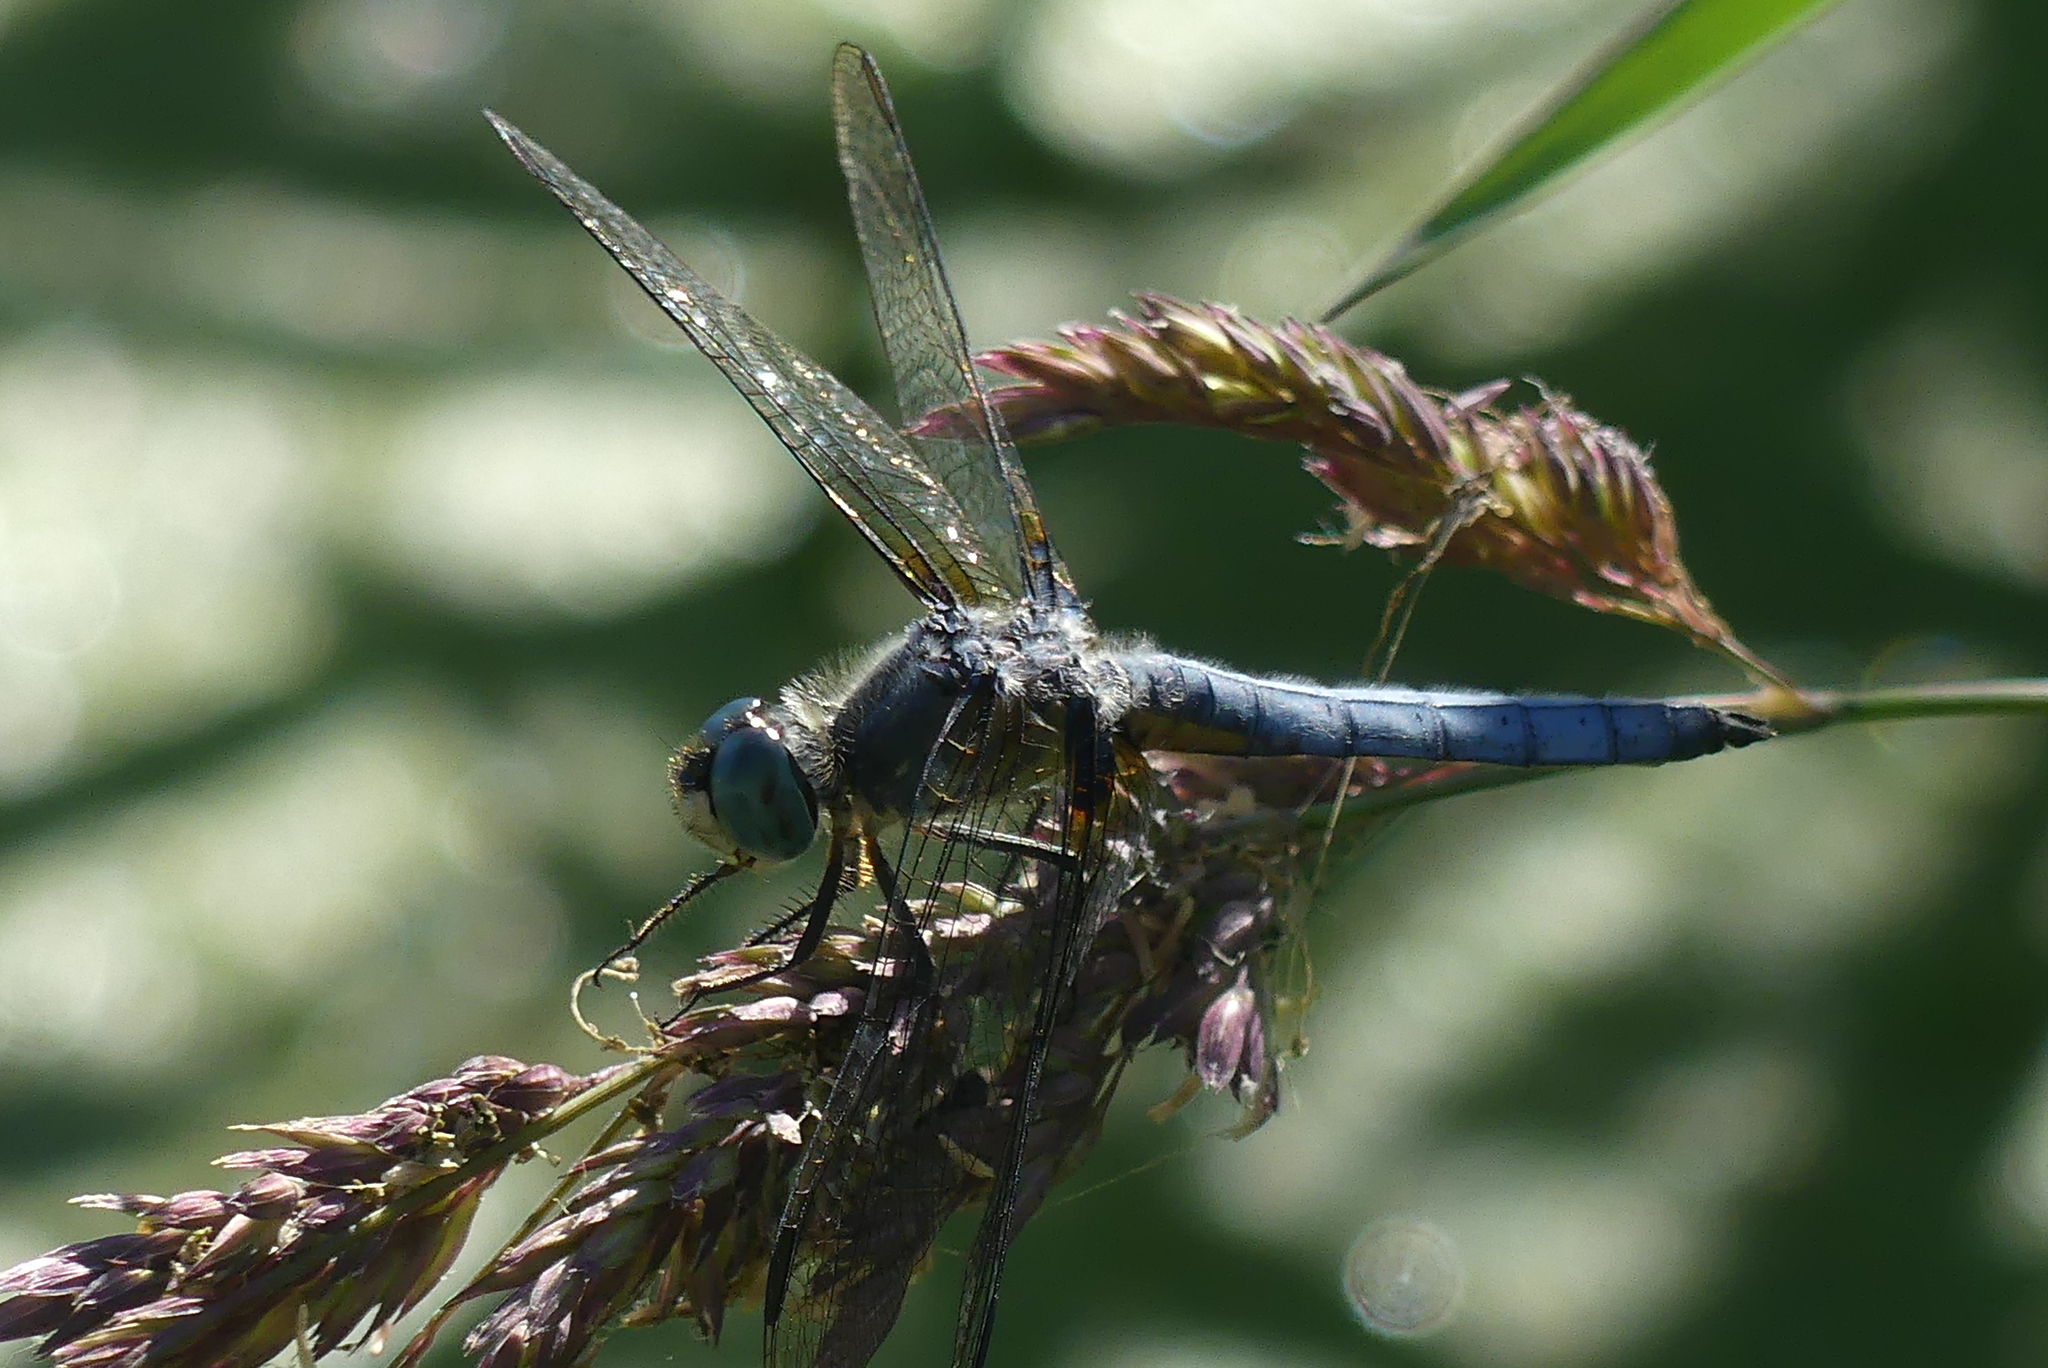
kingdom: Animalia
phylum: Arthropoda
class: Insecta
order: Odonata
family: Libellulidae
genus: Pachydiplax
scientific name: Pachydiplax longipennis
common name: Blue dasher
